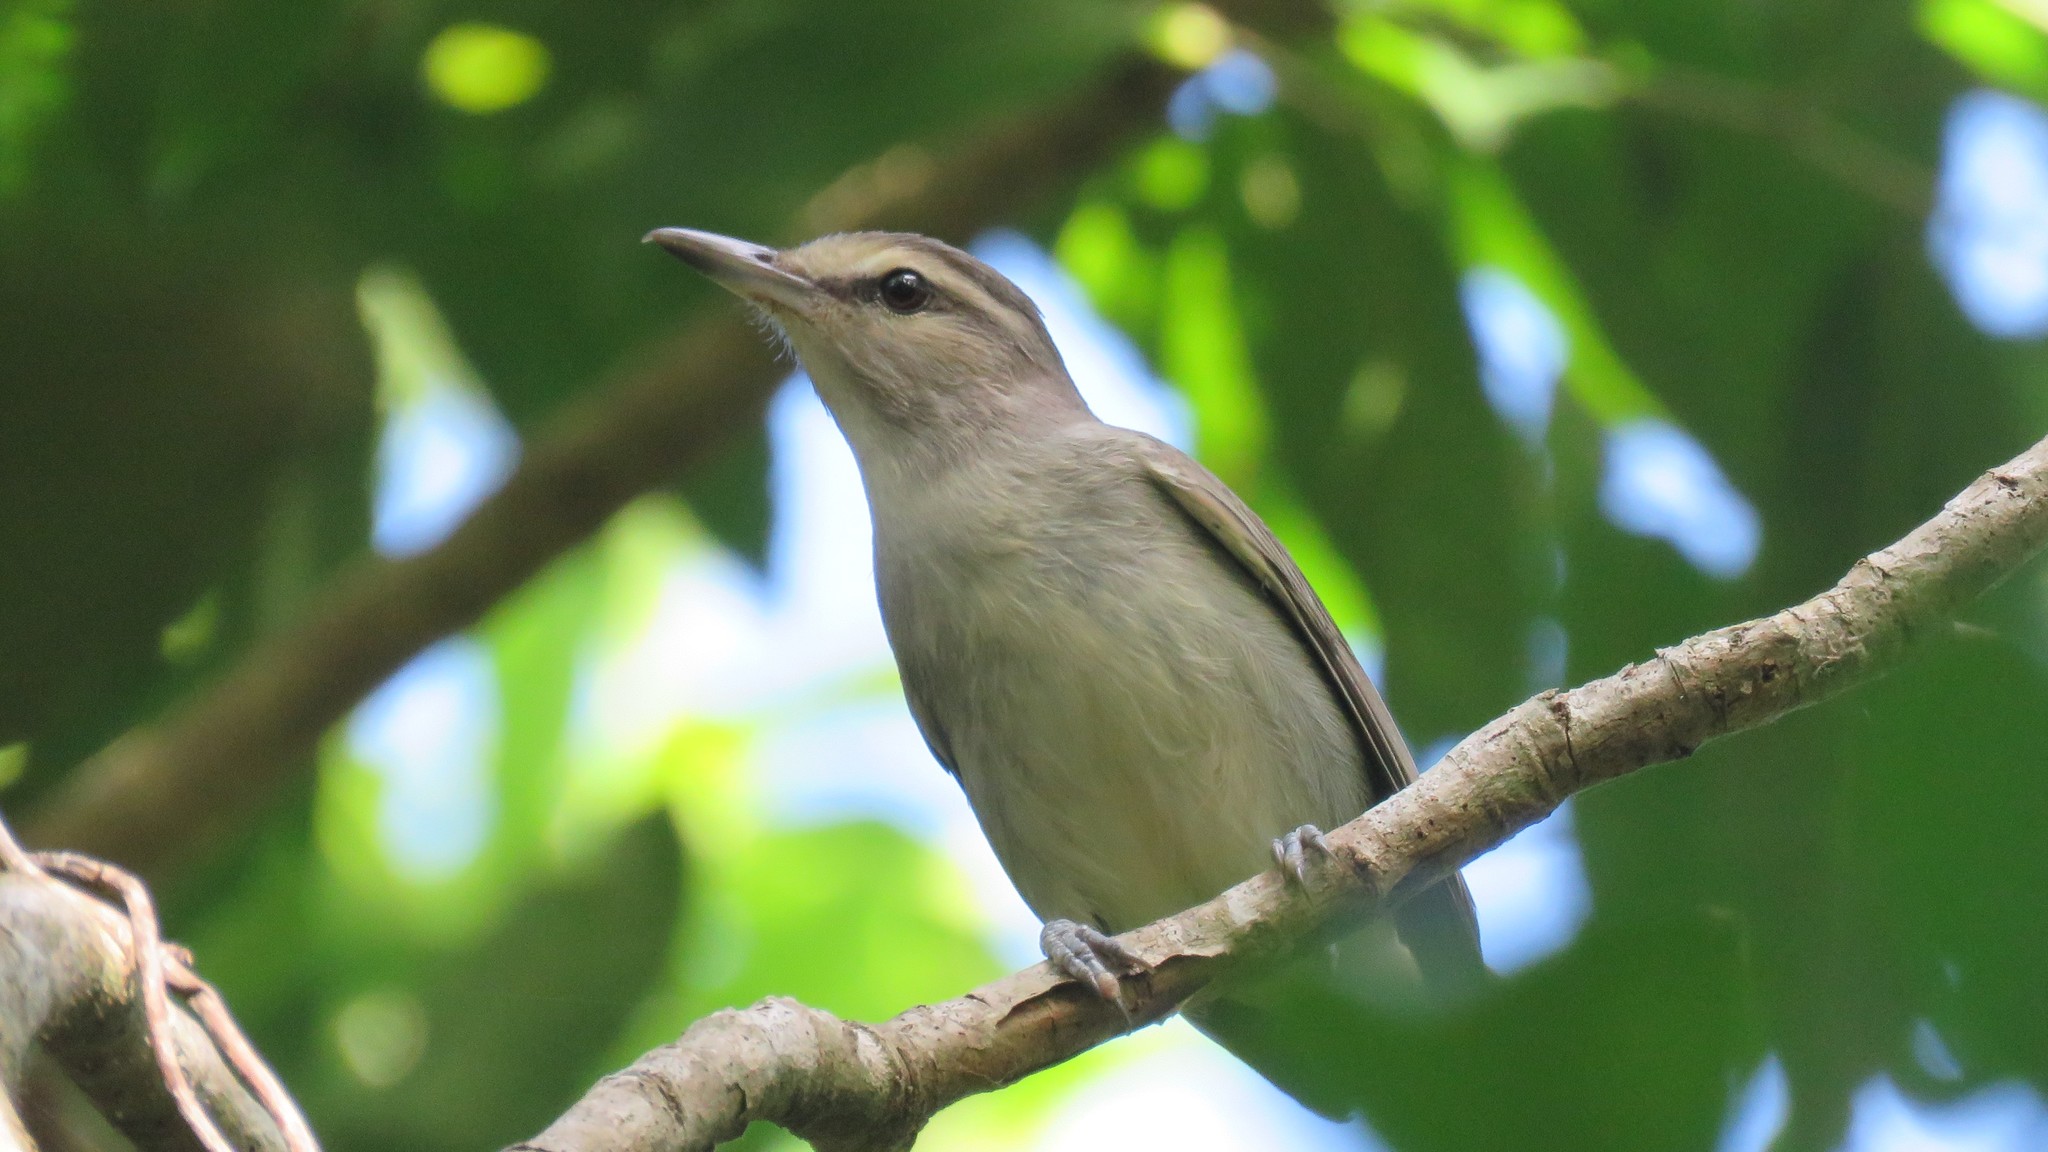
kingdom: Animalia
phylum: Chordata
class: Aves
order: Passeriformes
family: Vireonidae
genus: Vireo
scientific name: Vireo magister
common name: Yucatan vireo
